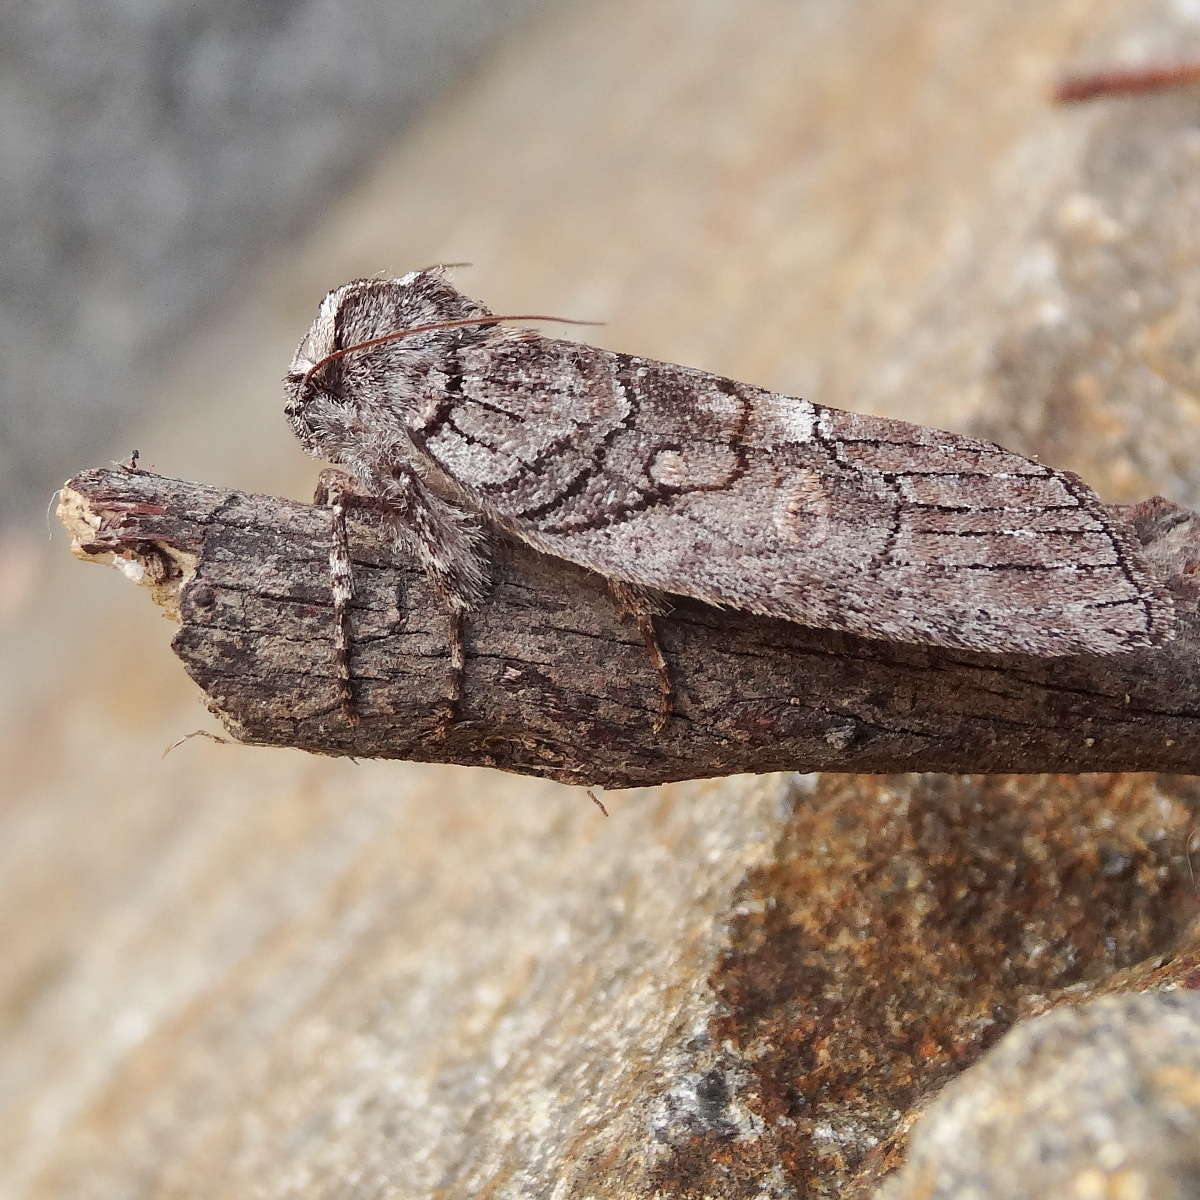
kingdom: Animalia
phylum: Arthropoda
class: Insecta
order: Lepidoptera
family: Oenosandridae
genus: Discophlebia
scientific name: Discophlebia celaena
